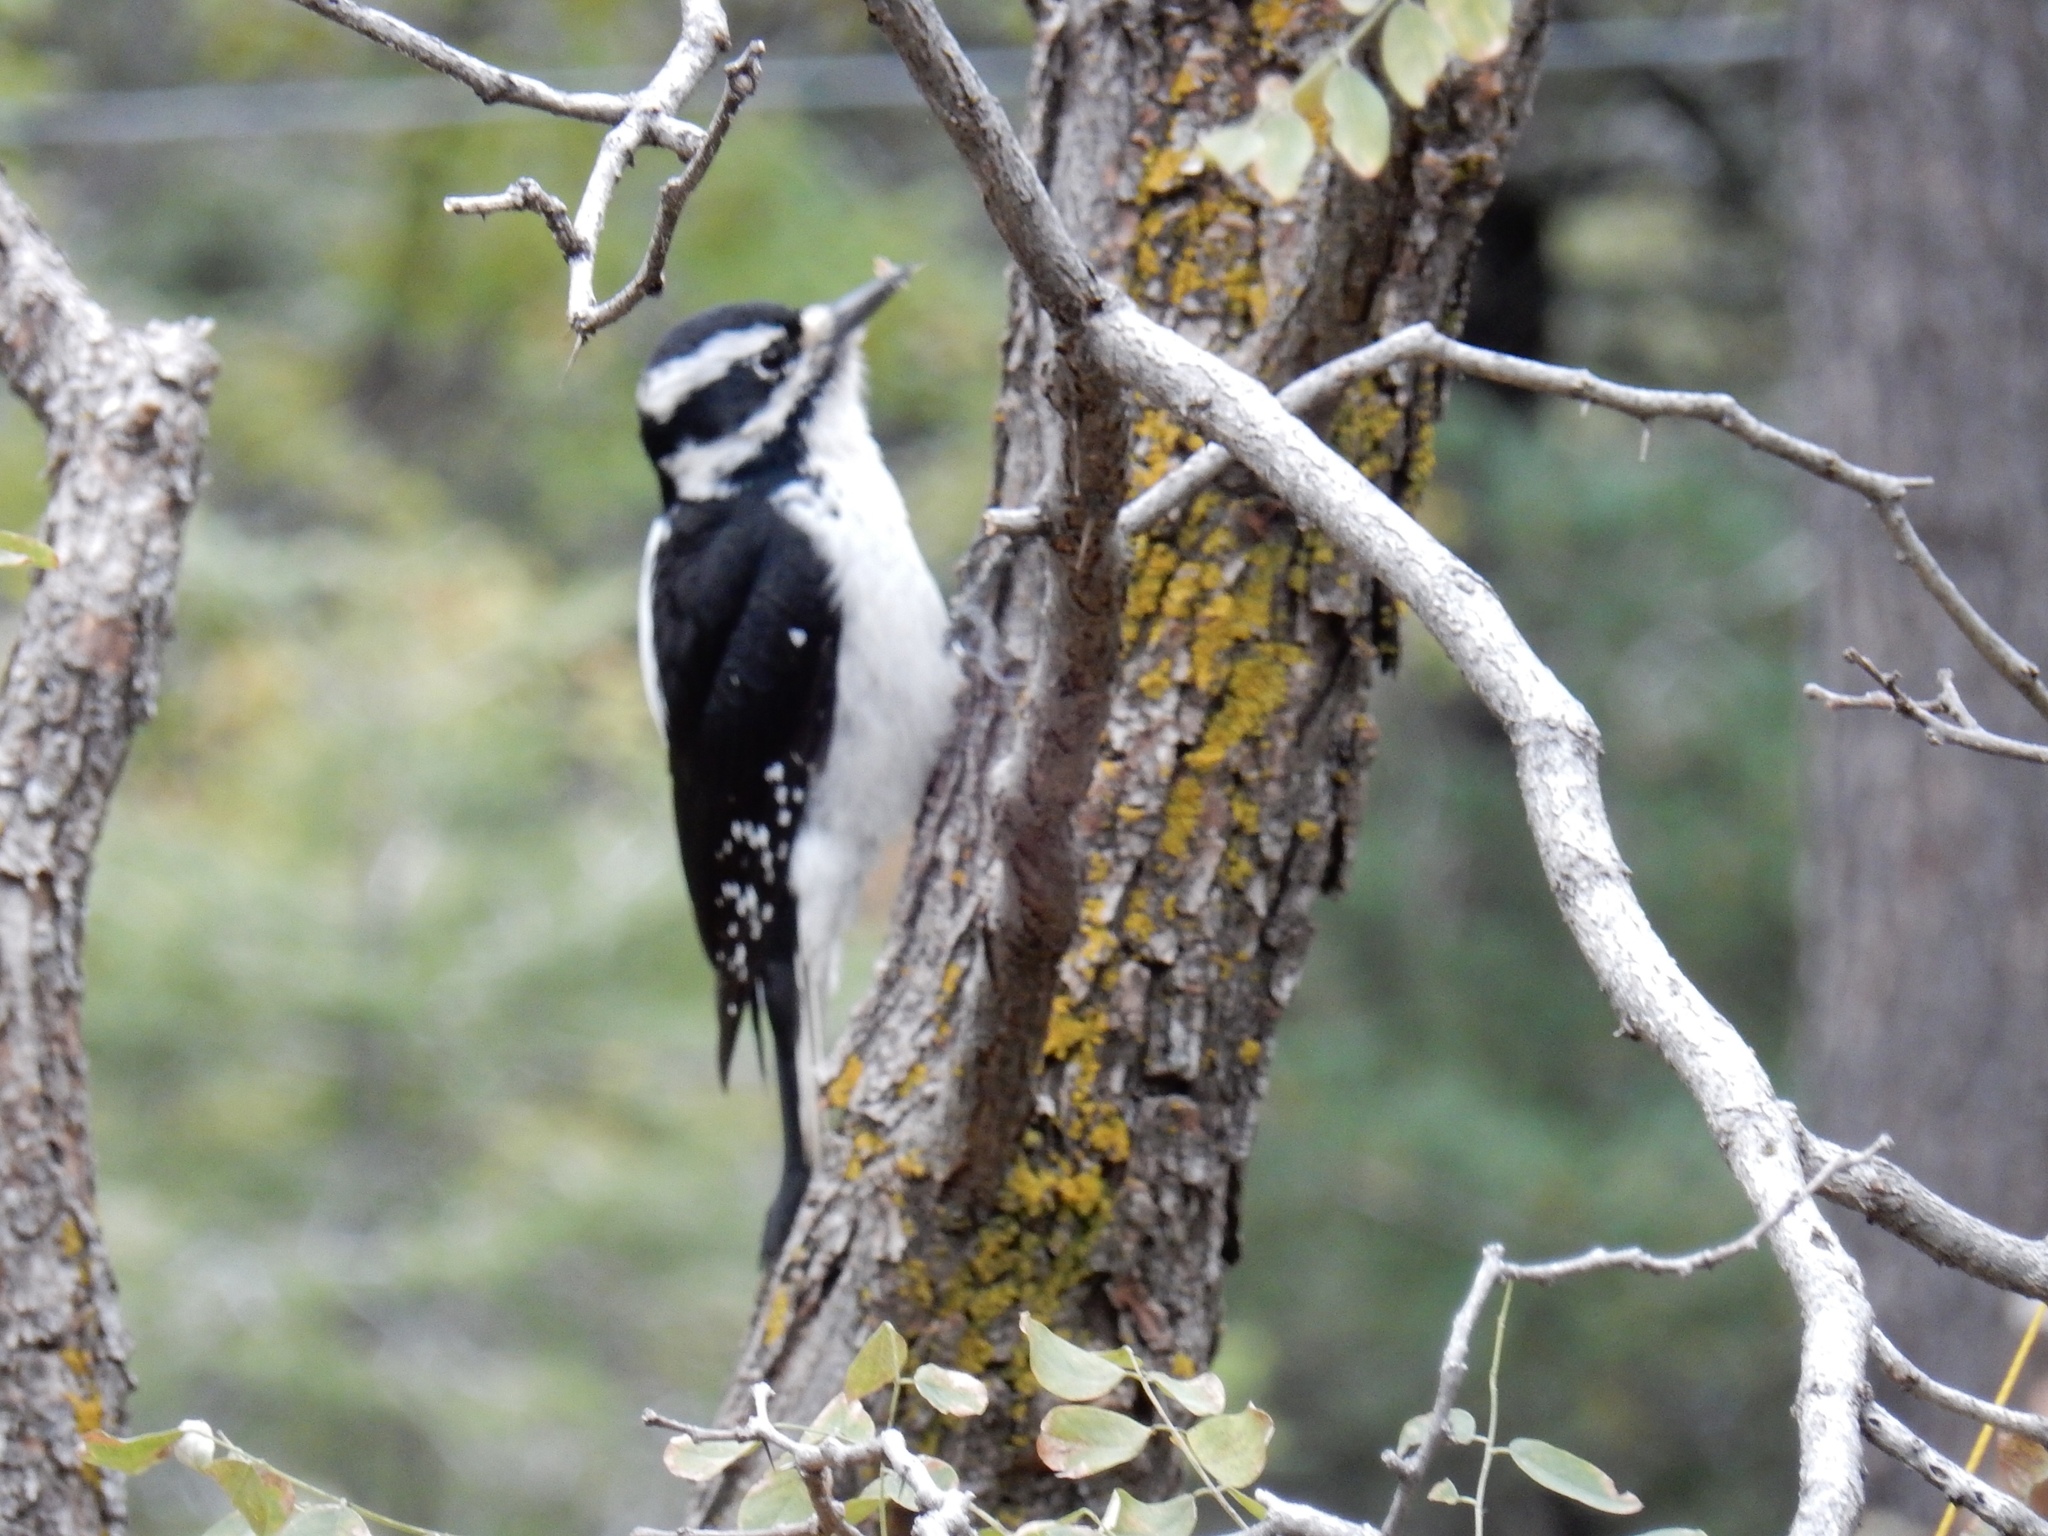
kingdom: Animalia
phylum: Chordata
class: Aves
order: Piciformes
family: Picidae
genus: Leuconotopicus
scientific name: Leuconotopicus villosus
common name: Hairy woodpecker
